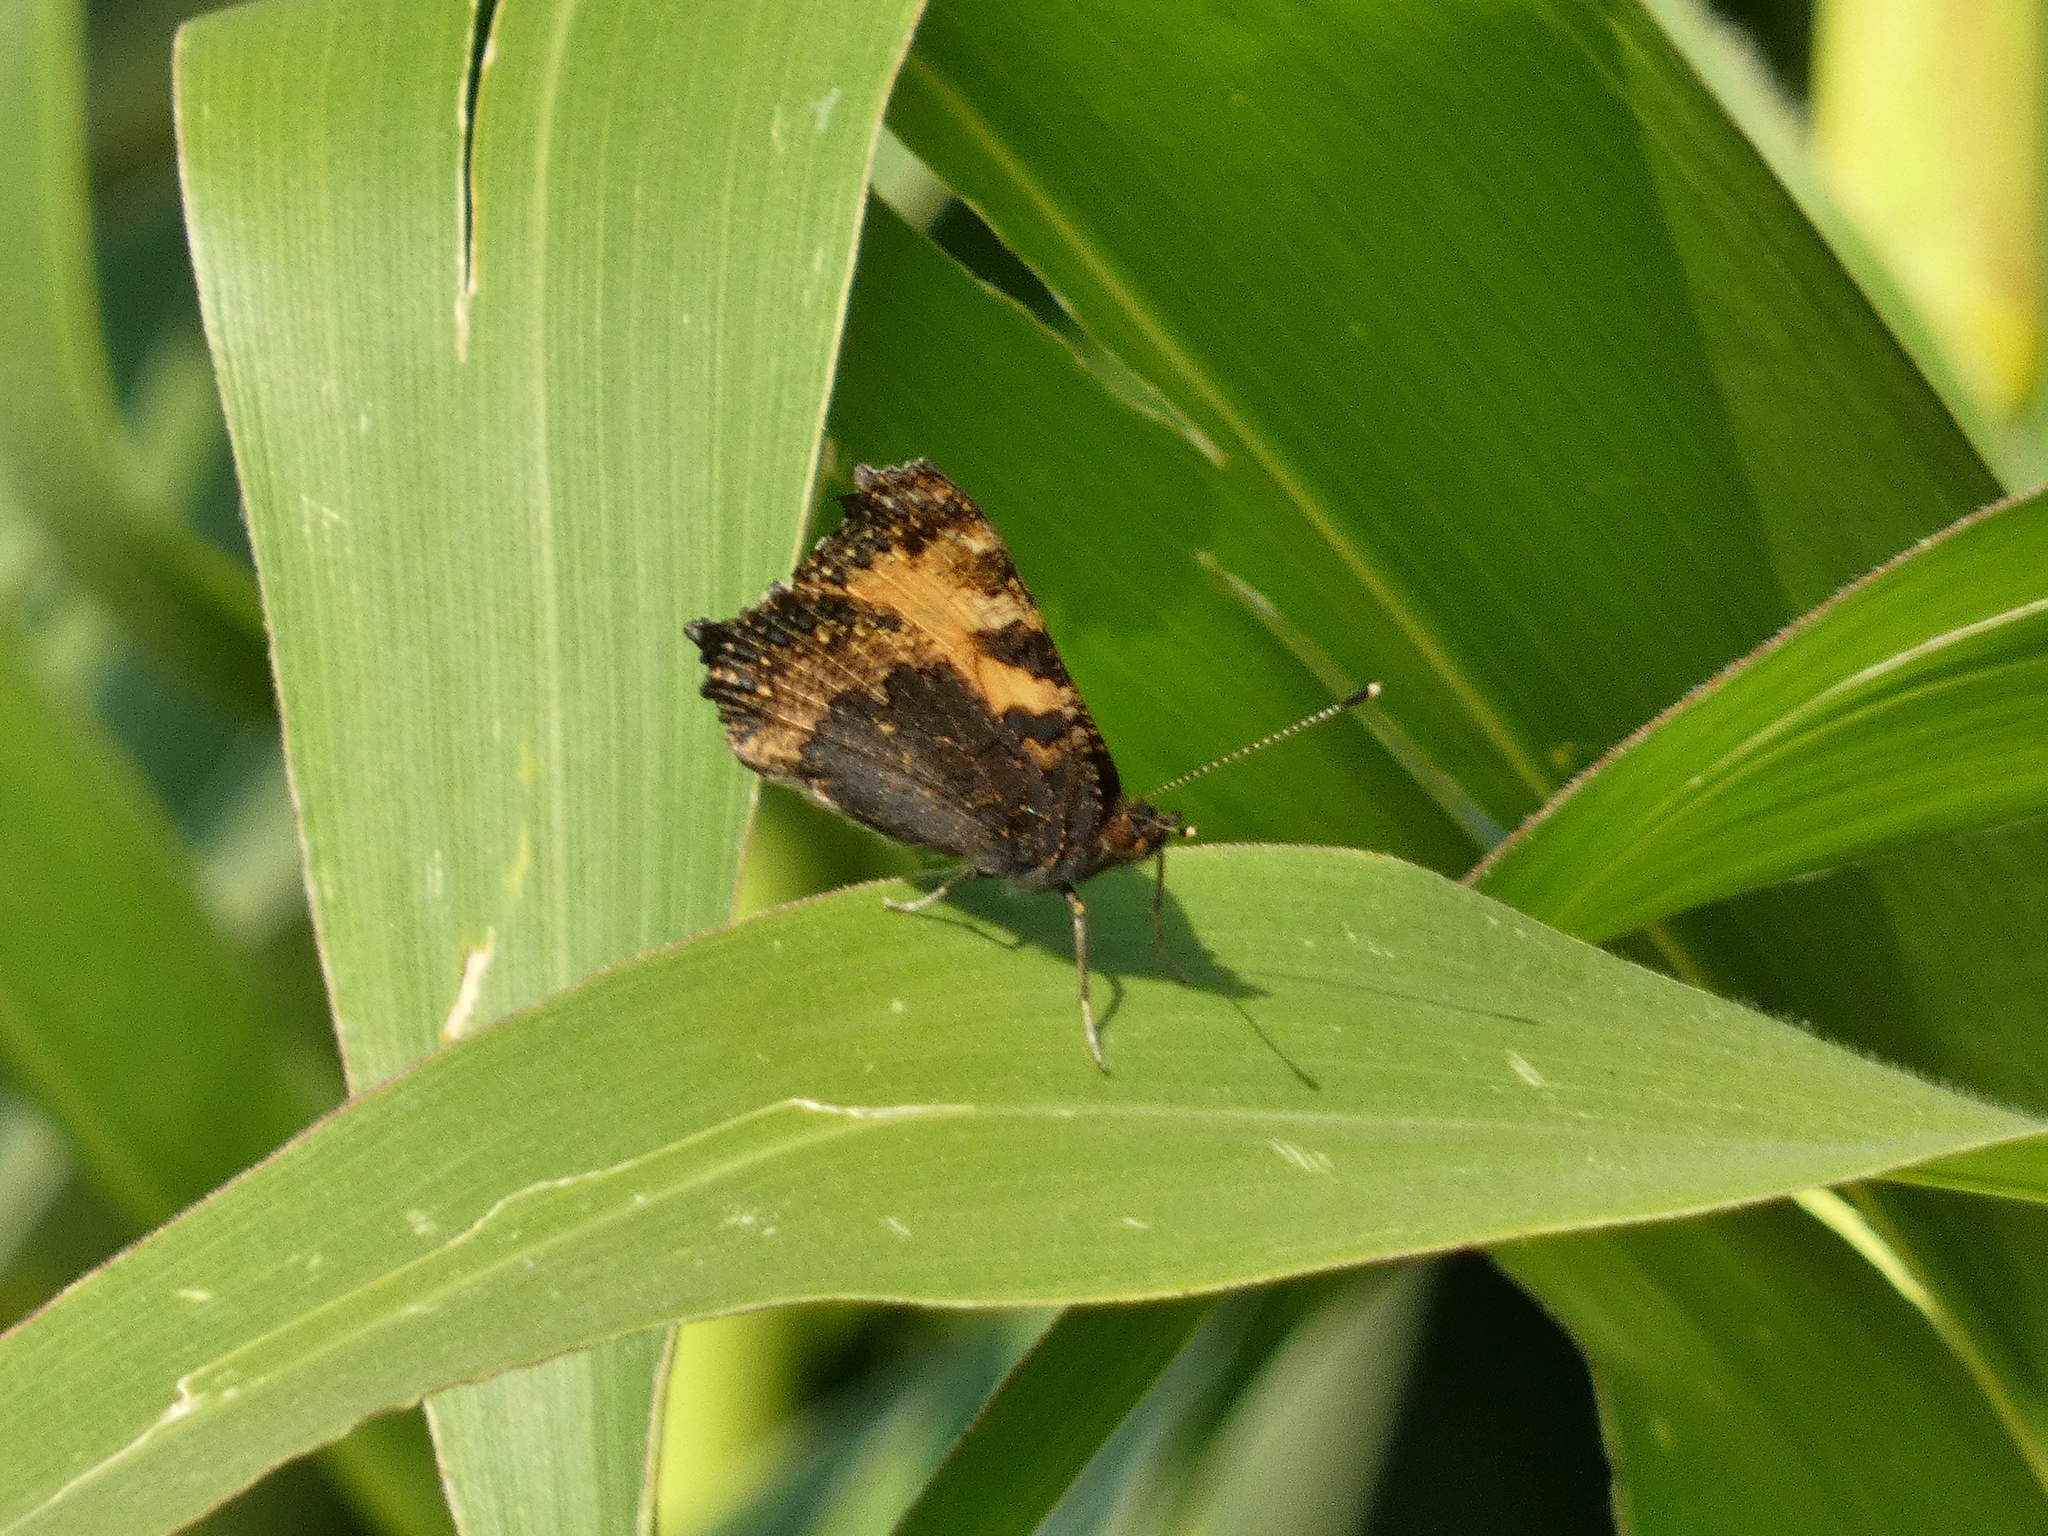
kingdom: Animalia
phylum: Arthropoda
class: Insecta
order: Lepidoptera
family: Nymphalidae
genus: Aglais
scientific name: Aglais urticae
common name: Small tortoiseshell
